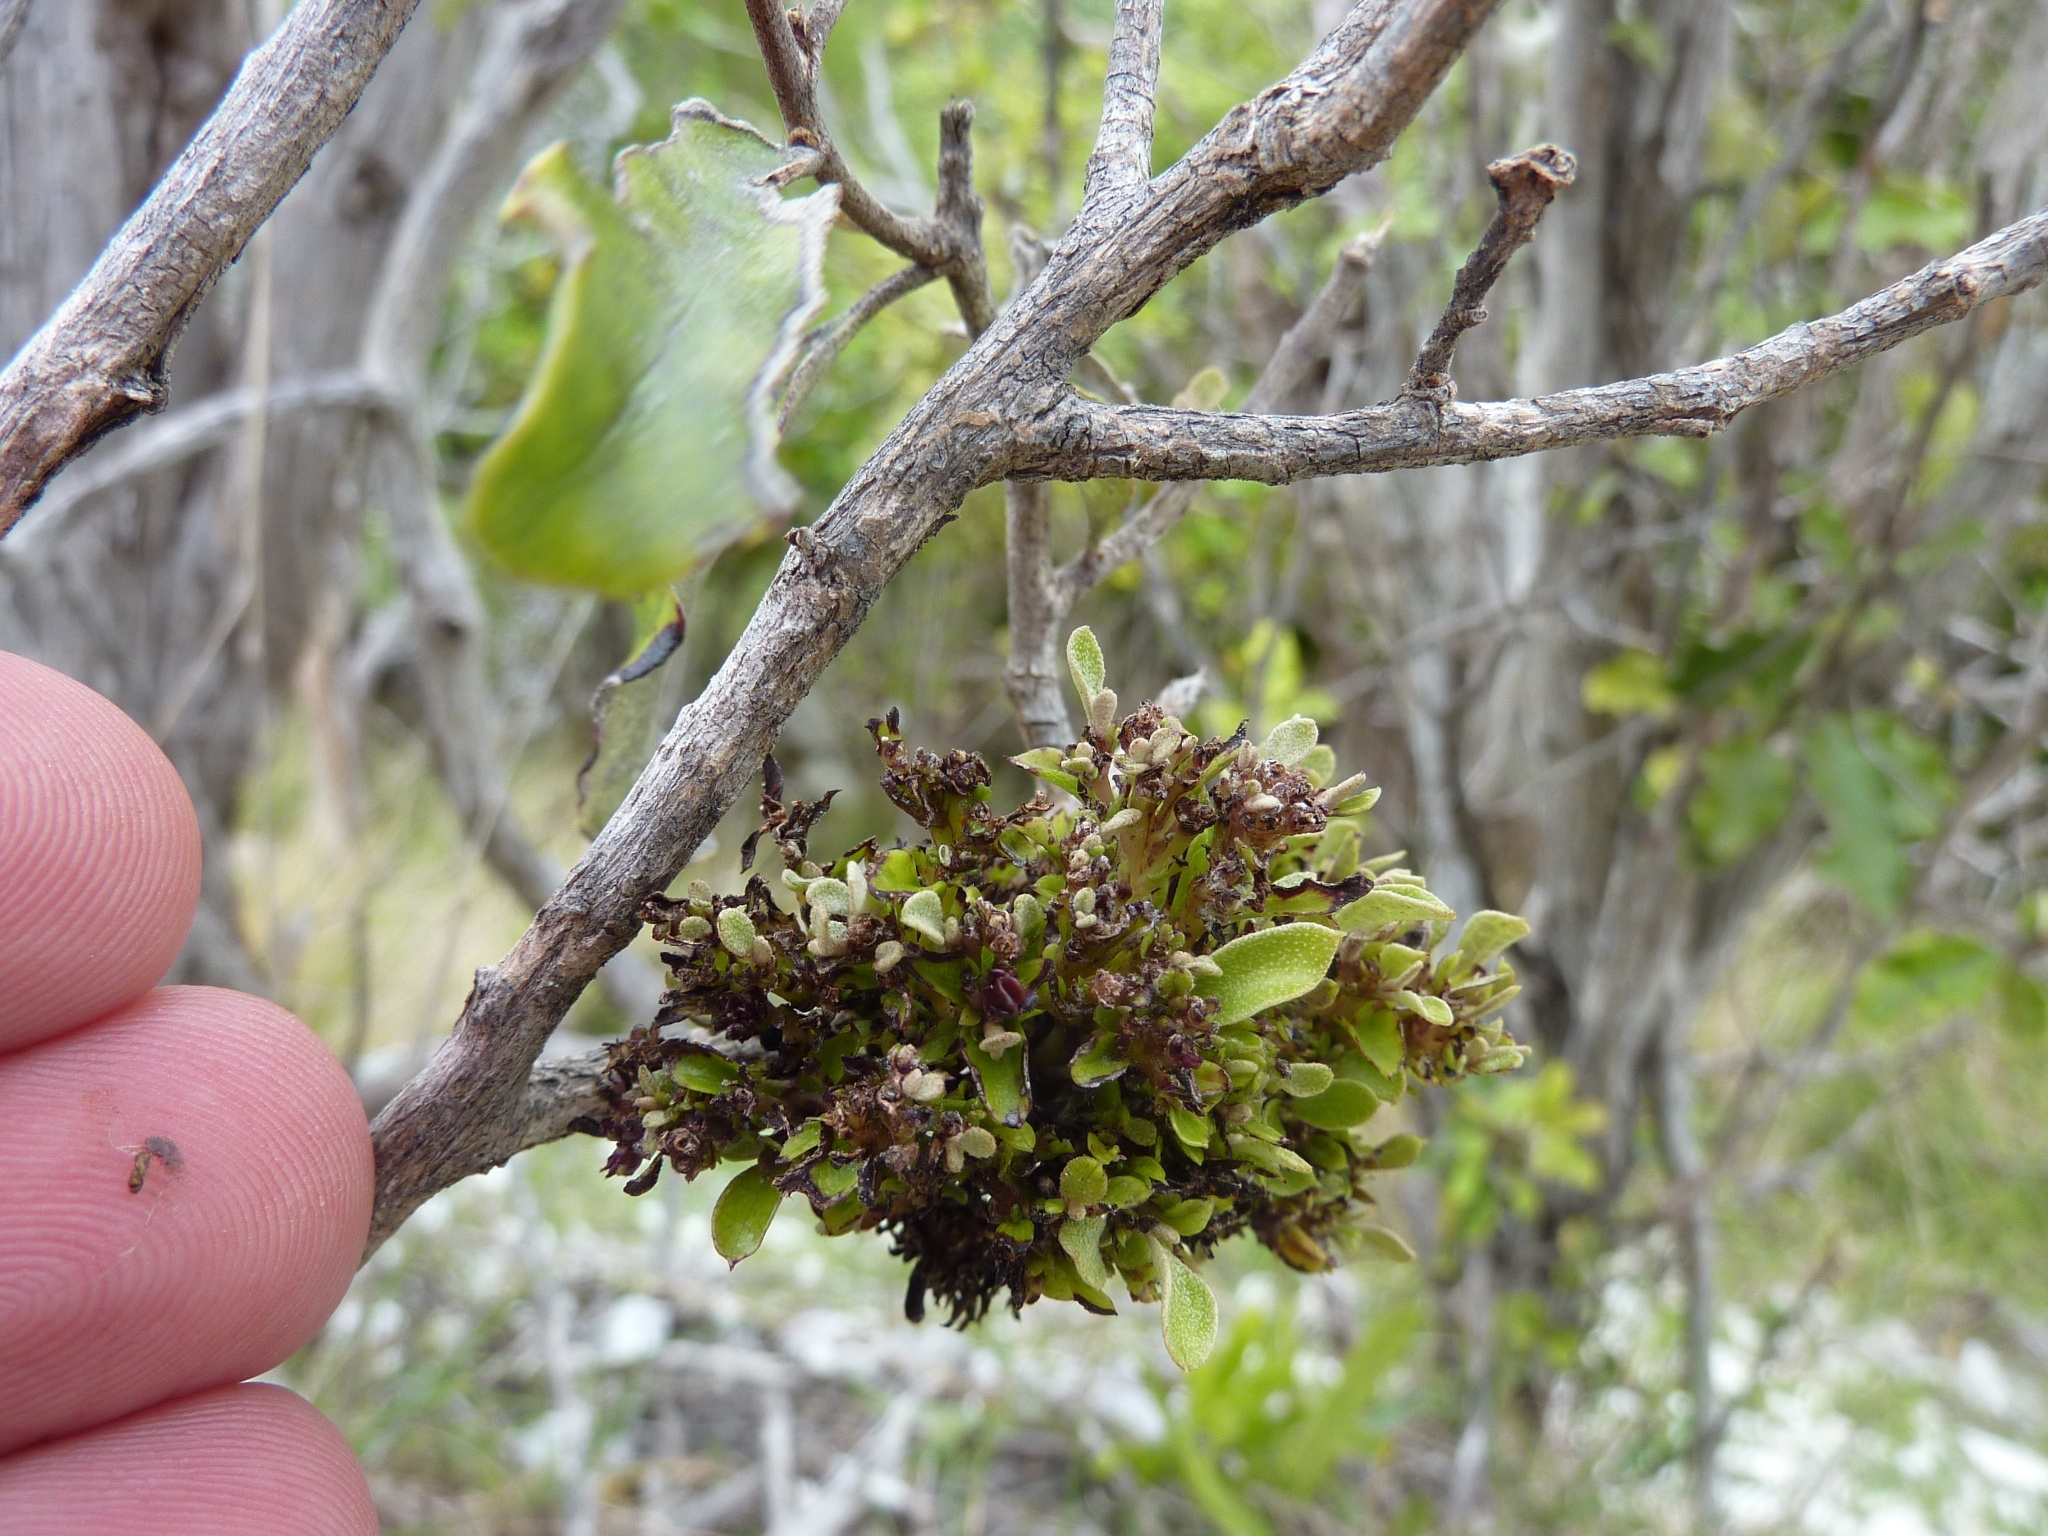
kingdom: Plantae
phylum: Tracheophyta
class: Magnoliopsida
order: Asterales
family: Asteraceae
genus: Olearia
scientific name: Olearia paniculata
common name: Akiraho
